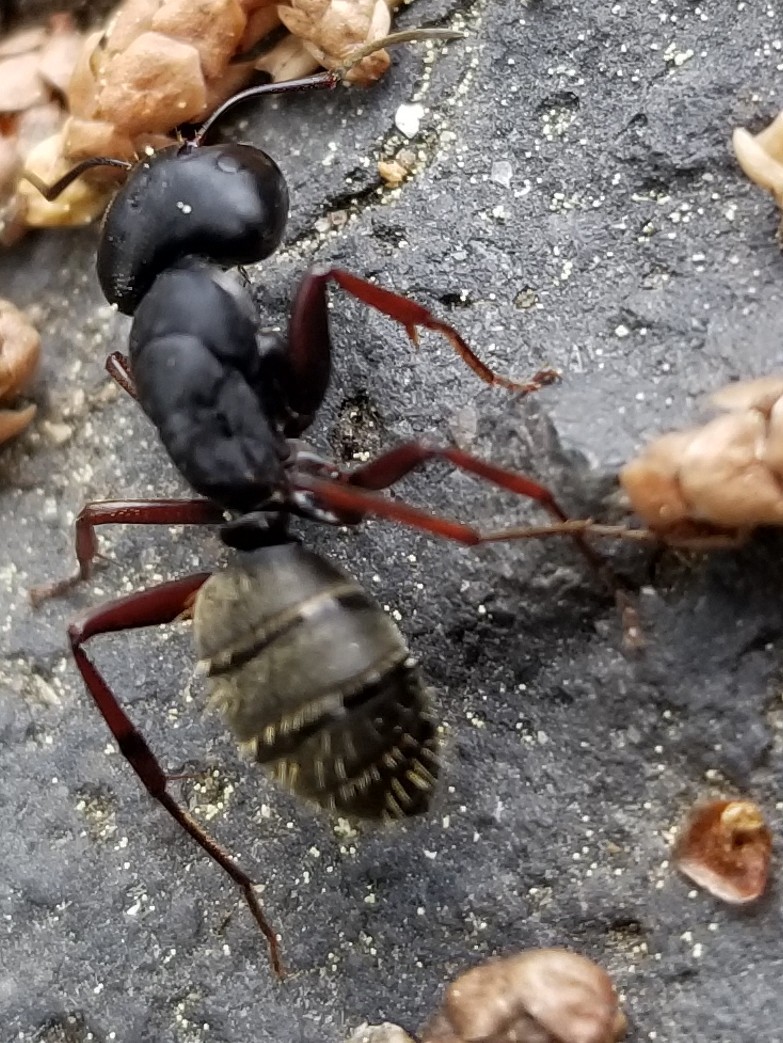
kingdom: Animalia
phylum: Arthropoda
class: Insecta
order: Hymenoptera
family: Formicidae
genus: Camponotus
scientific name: Camponotus modoc
